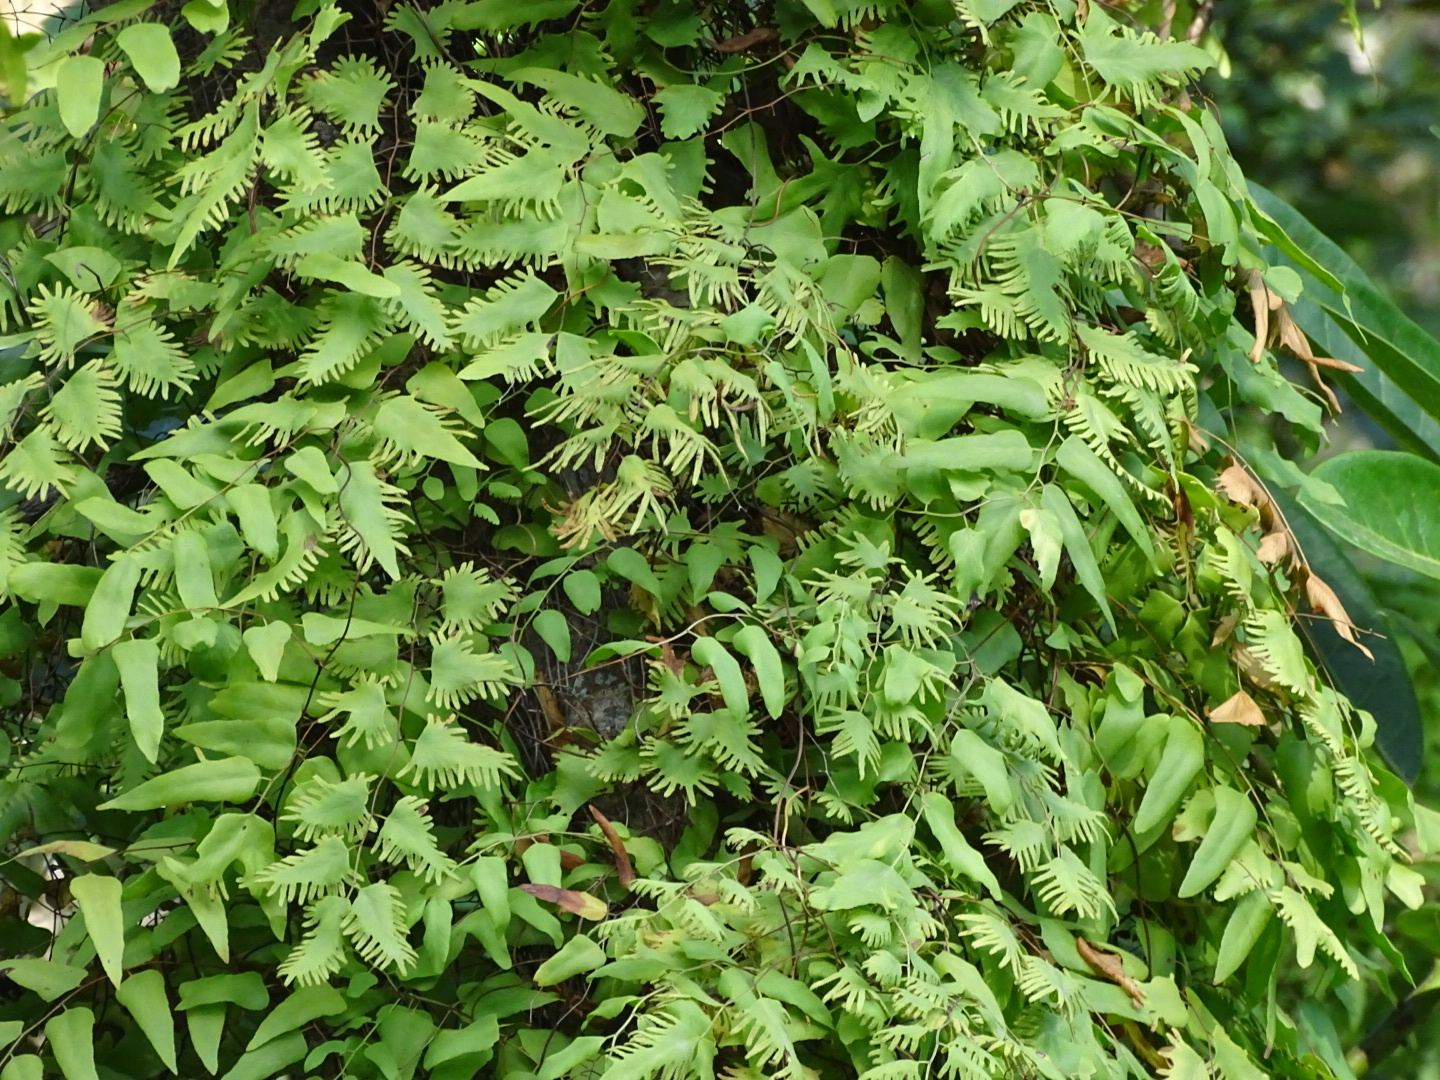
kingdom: Plantae
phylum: Tracheophyta
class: Polypodiopsida
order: Schizaeales
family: Lygodiaceae
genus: Lygodium
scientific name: Lygodium microphyllum
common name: Small-leaf climbing fern
